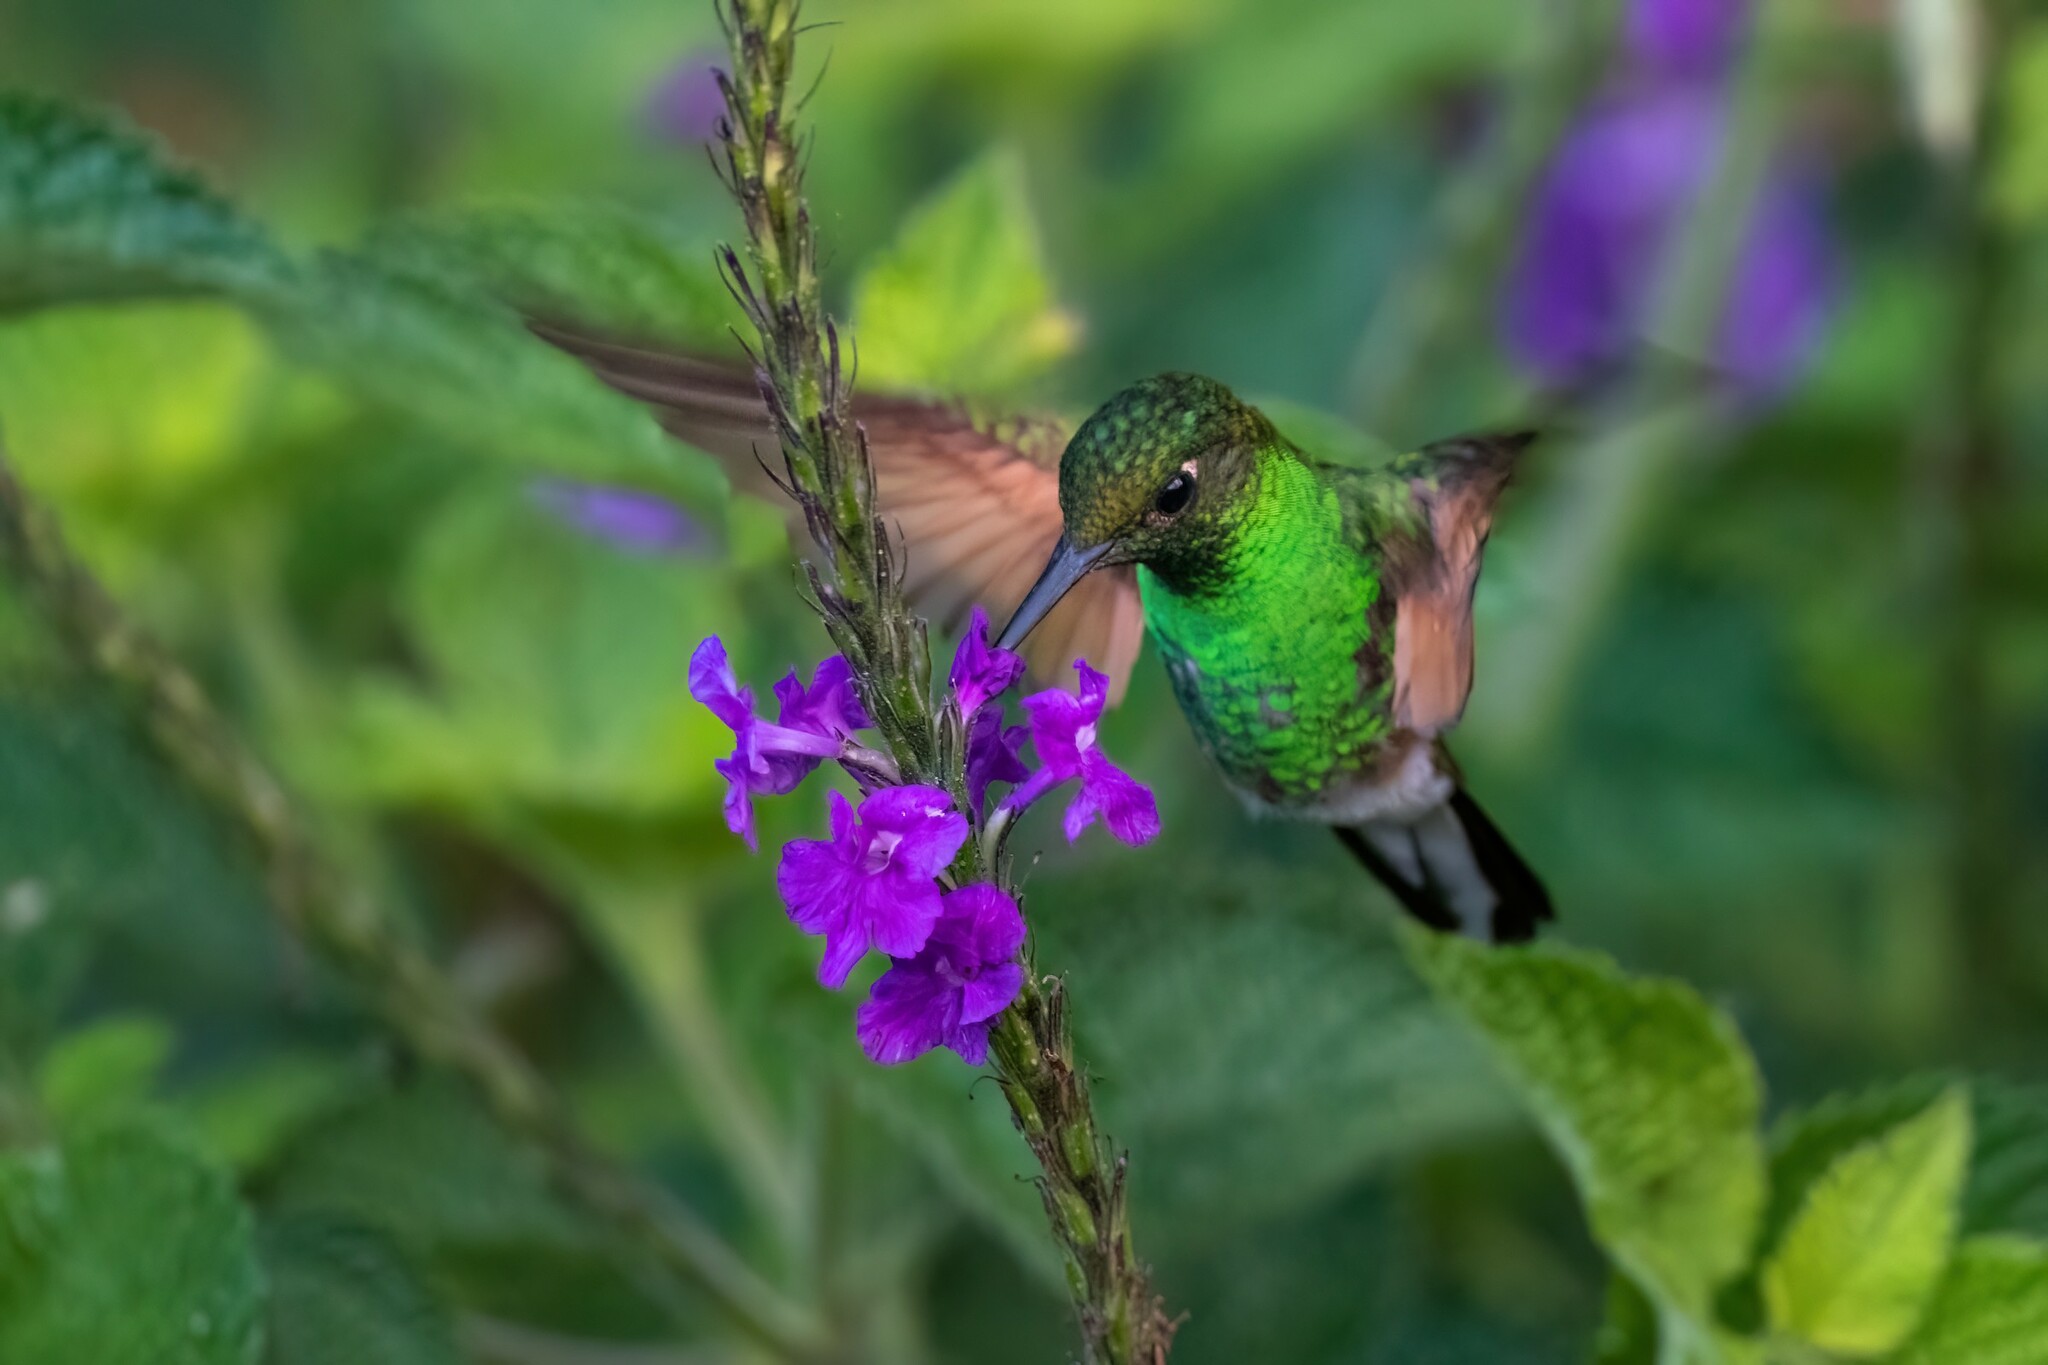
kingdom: Animalia
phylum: Chordata
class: Aves
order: Apodiformes
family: Trochilidae
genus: Eupherusa
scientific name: Eupherusa eximia
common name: Stripe-tailed hummingbird
